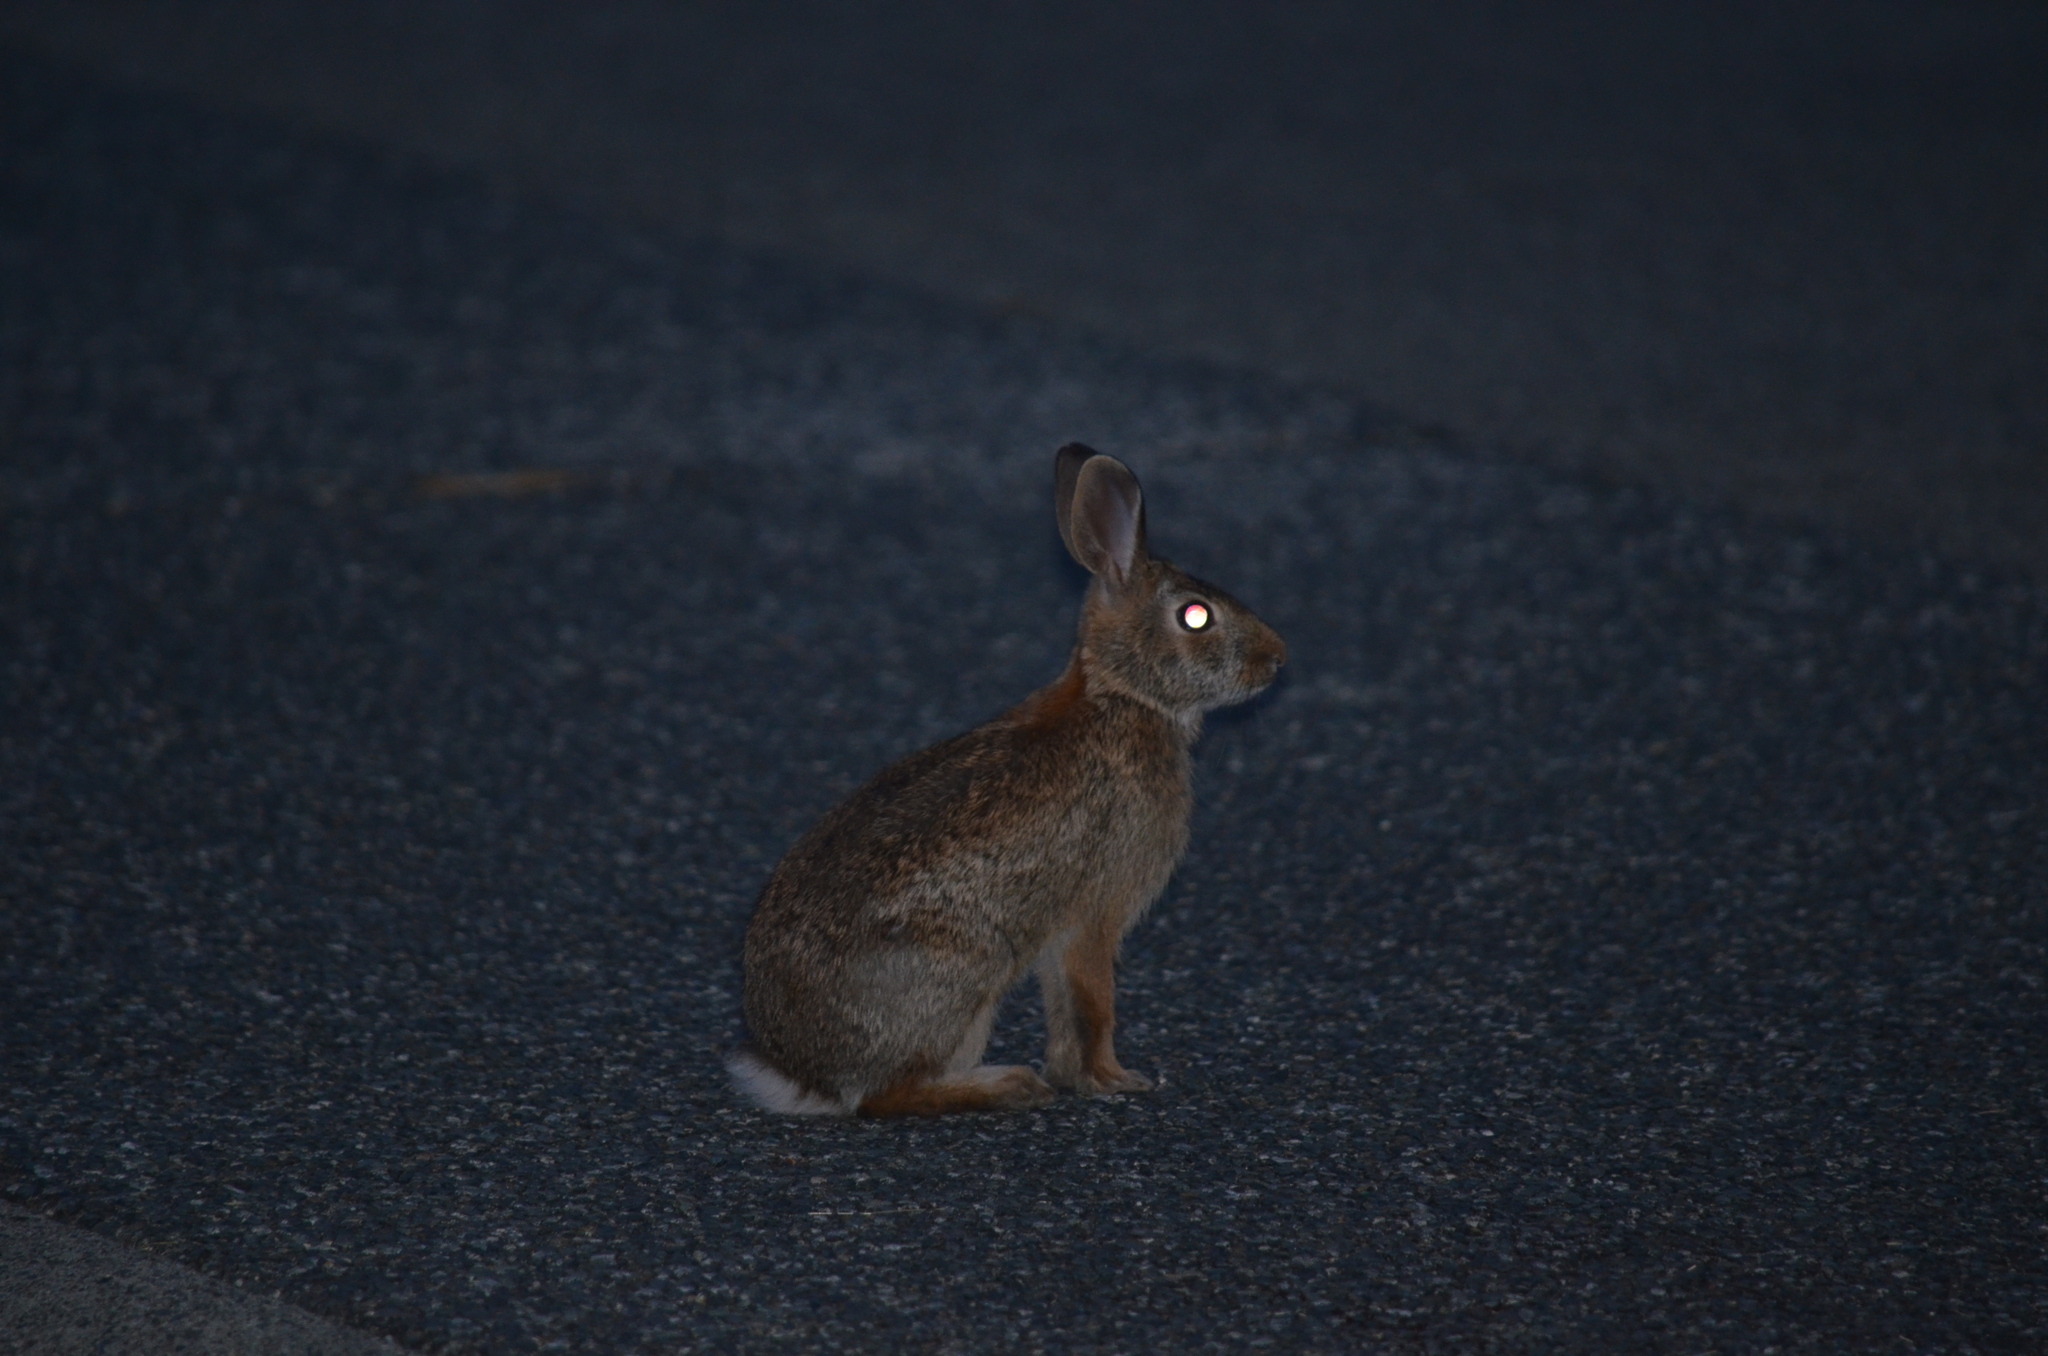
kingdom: Animalia
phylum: Chordata
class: Mammalia
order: Lagomorpha
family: Leporidae
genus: Sylvilagus
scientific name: Sylvilagus floridanus
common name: Eastern cottontail
